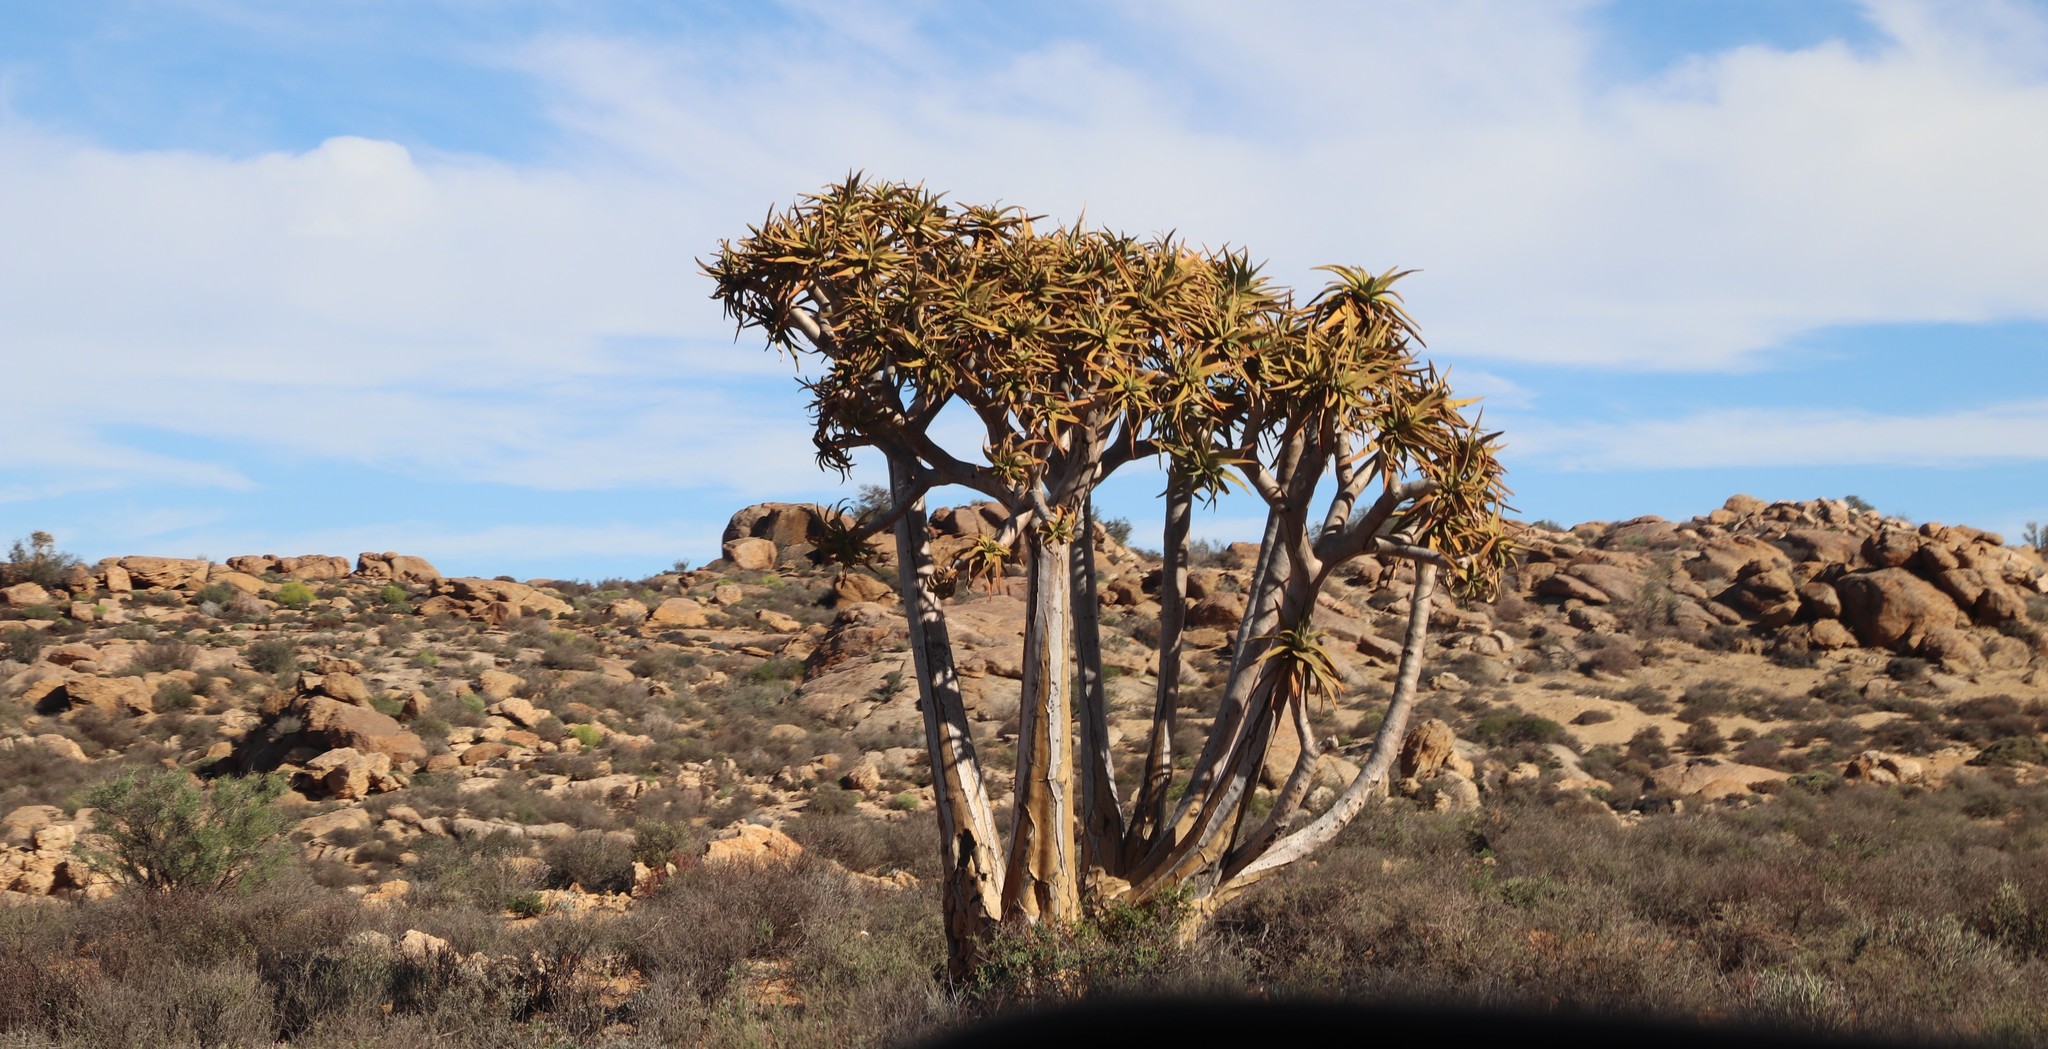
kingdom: Plantae
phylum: Tracheophyta
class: Liliopsida
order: Asparagales
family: Asphodelaceae
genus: Aloidendron
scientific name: Aloidendron dichotomum
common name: Quiver tree
